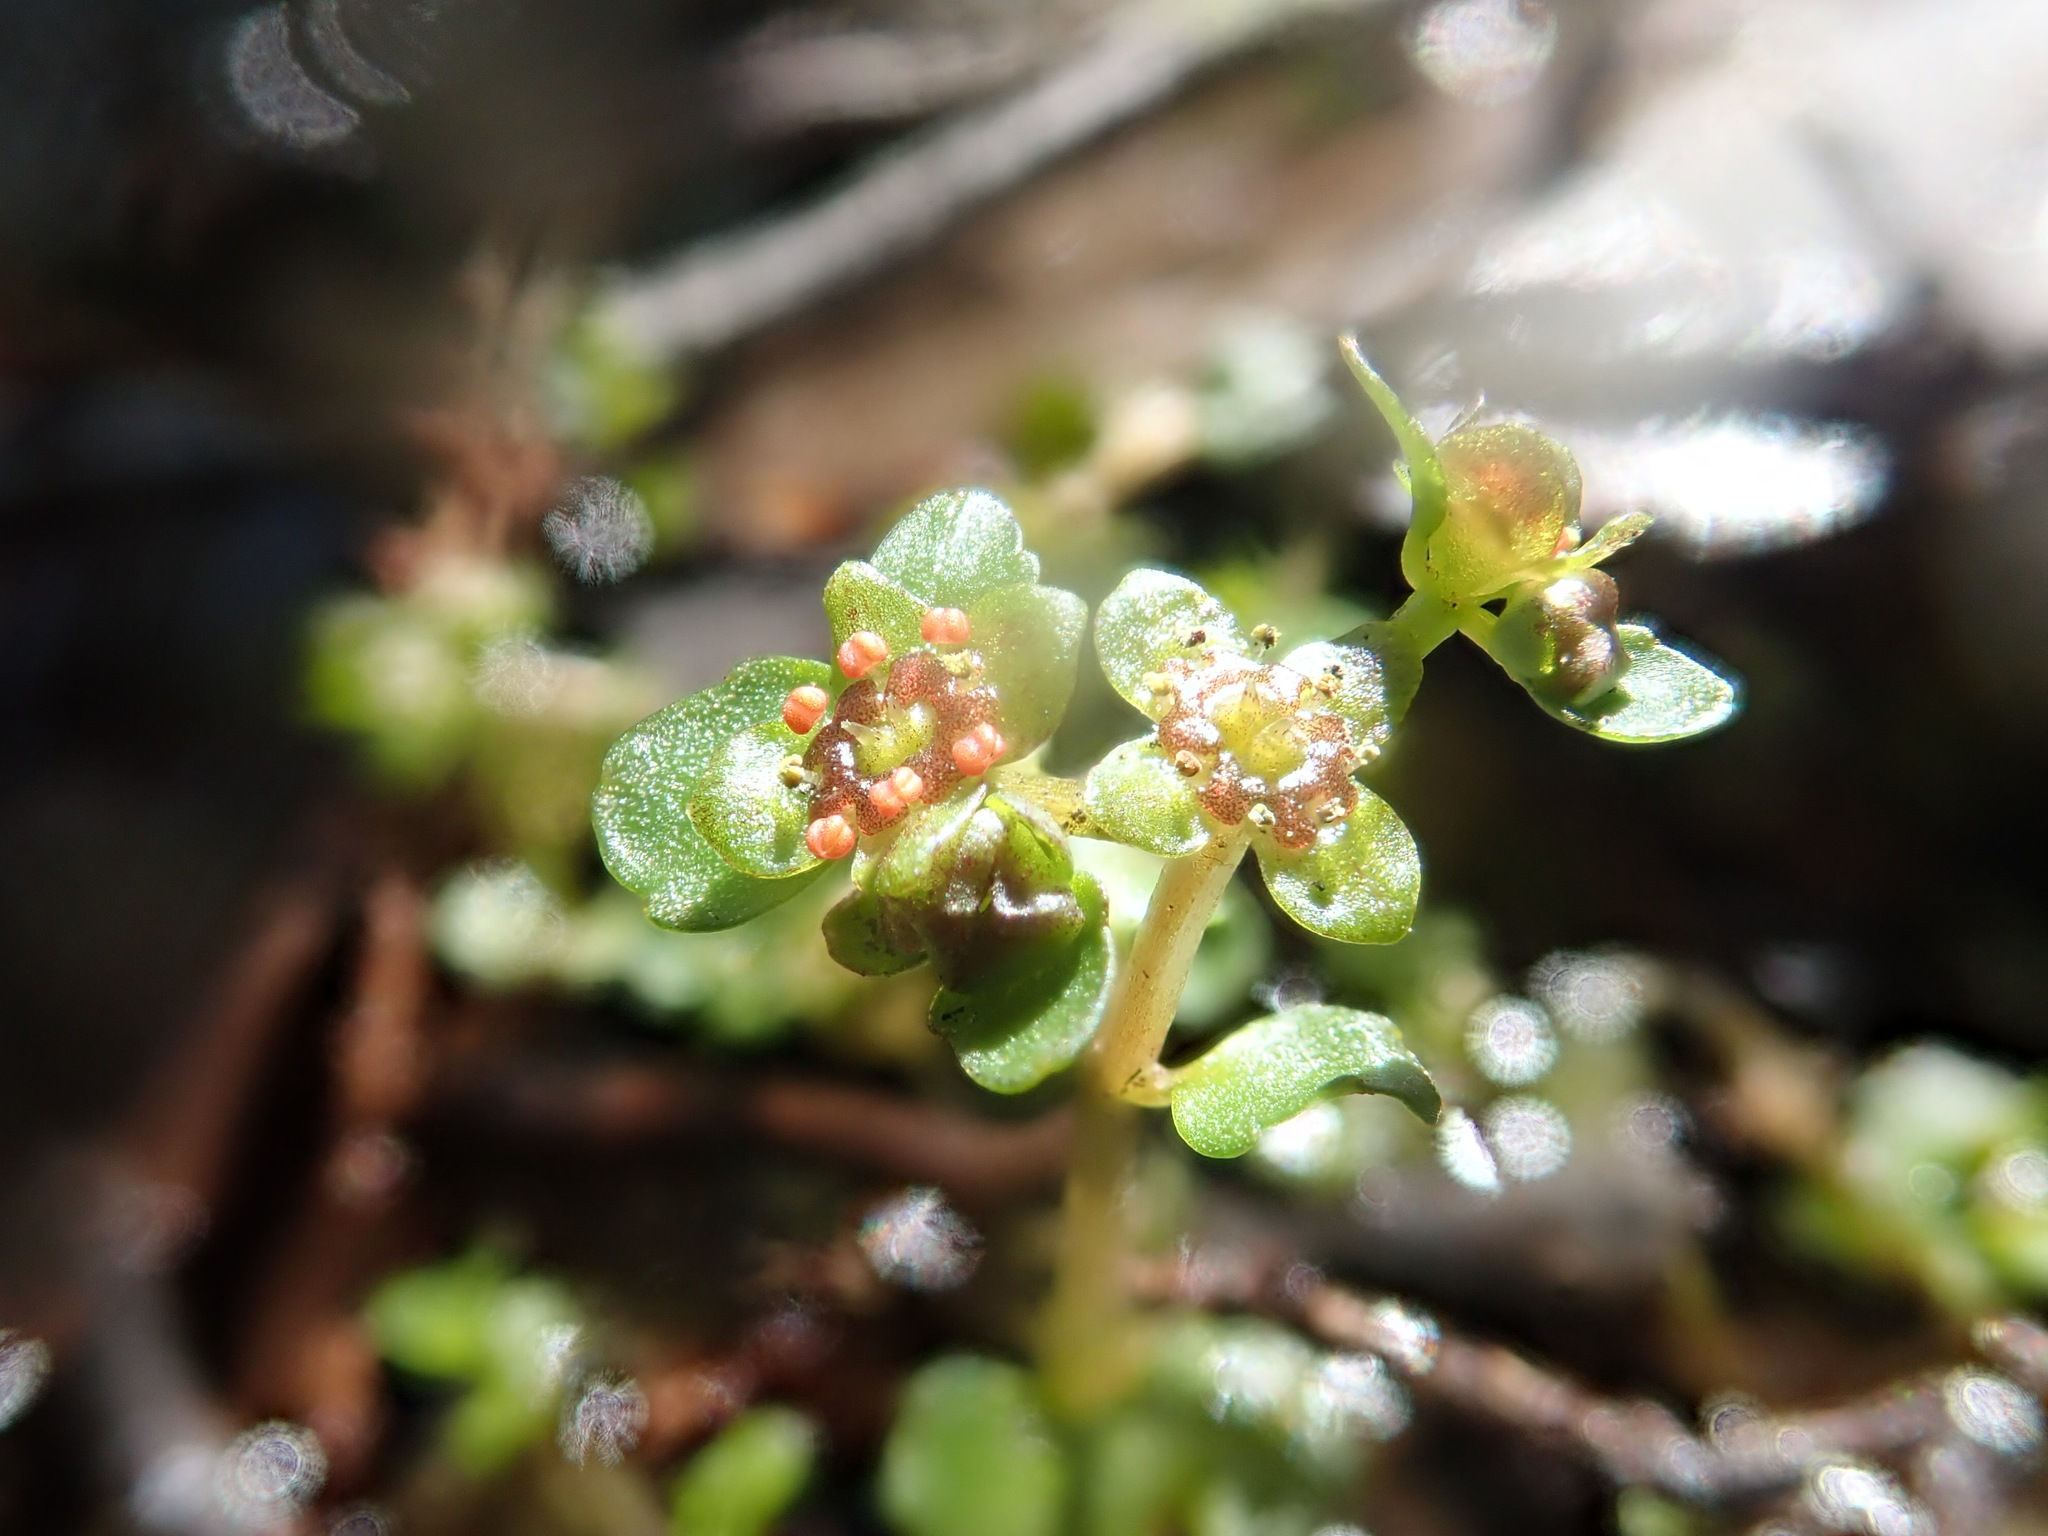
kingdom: Plantae
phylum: Tracheophyta
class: Magnoliopsida
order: Saxifragales
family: Saxifragaceae
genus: Chrysosplenium
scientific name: Chrysosplenium americanum
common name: American golden-saxifrage
